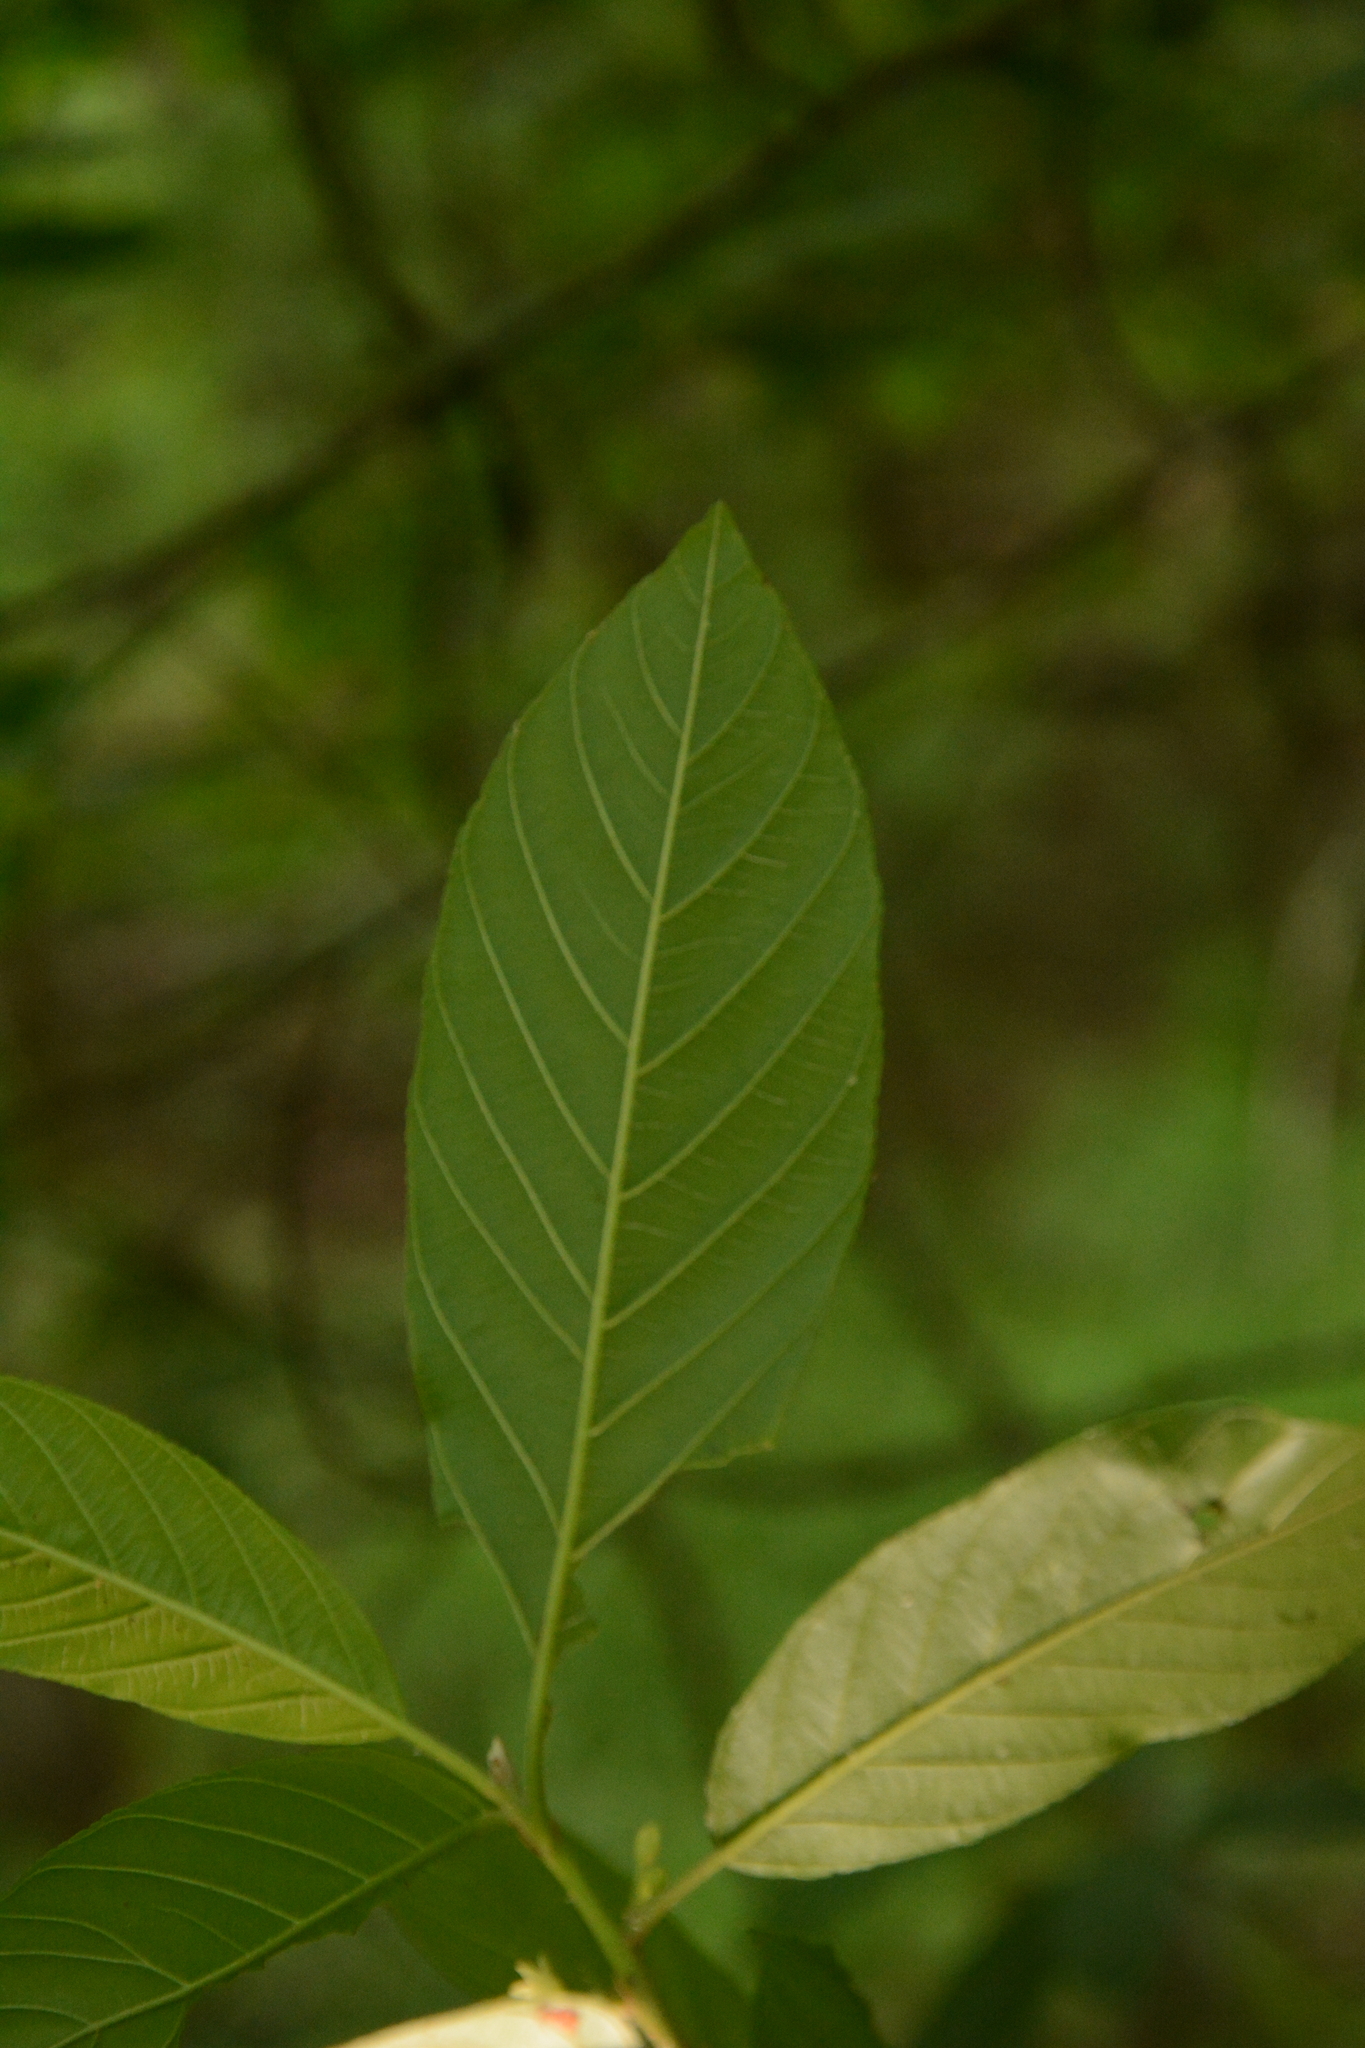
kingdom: Plantae
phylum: Tracheophyta
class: Magnoliopsida
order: Rosales
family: Rhamnaceae
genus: Frangula
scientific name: Frangula caroliniana
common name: Carolina buckthorn
